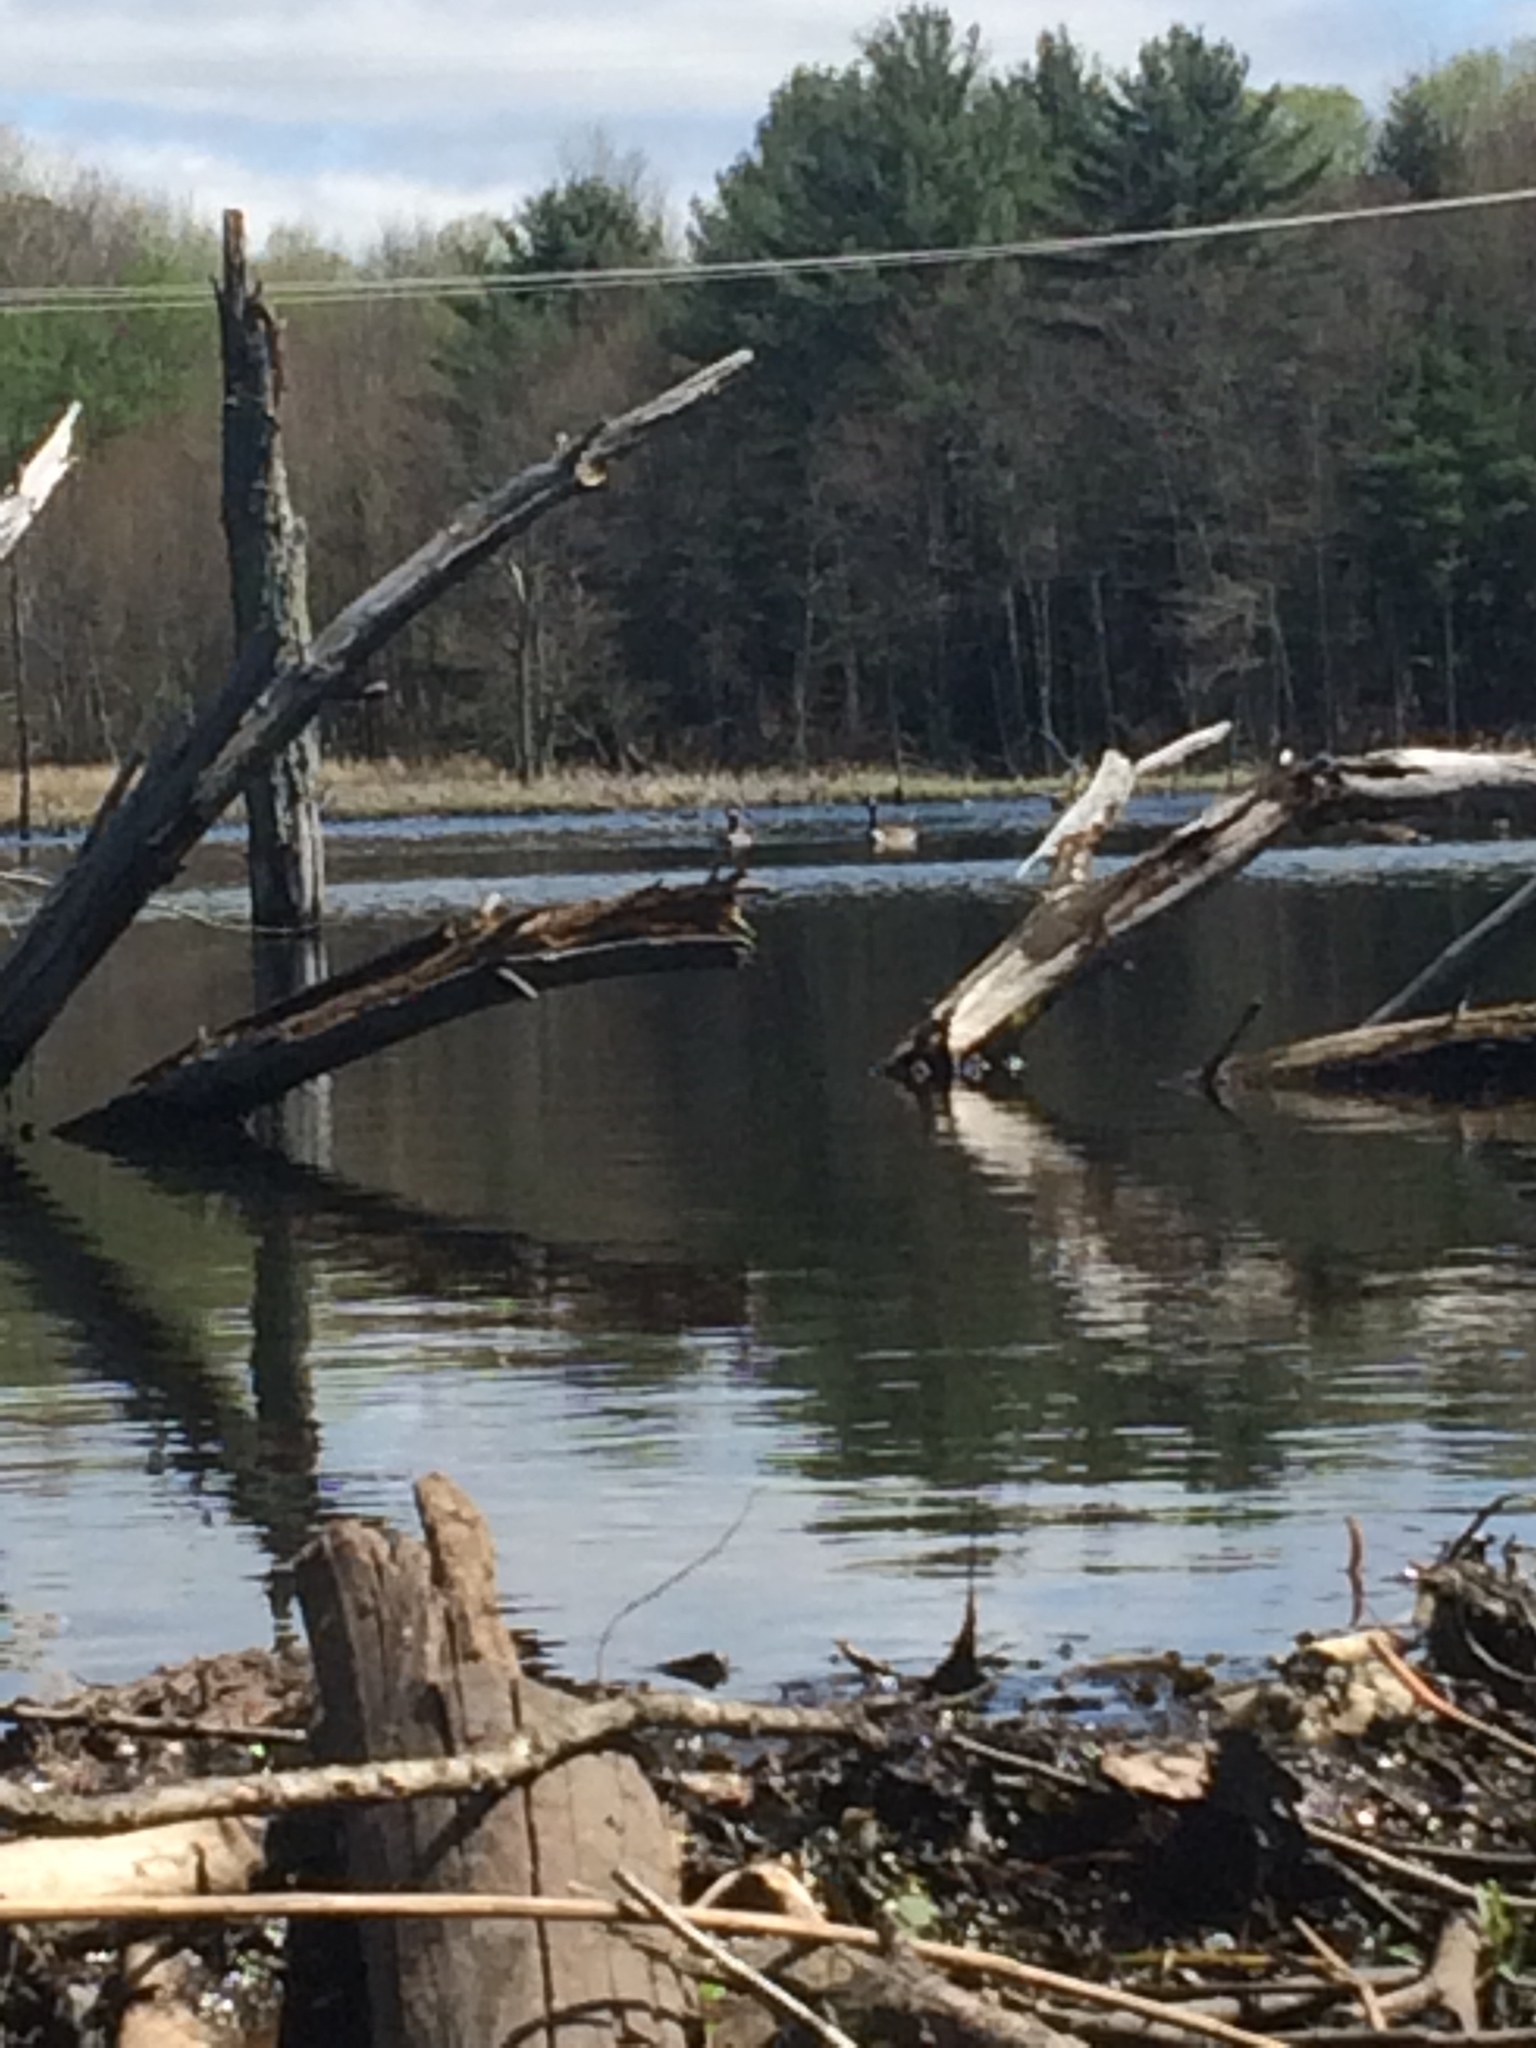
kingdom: Animalia
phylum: Chordata
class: Aves
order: Anseriformes
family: Anatidae
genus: Branta
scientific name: Branta canadensis
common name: Canada goose
